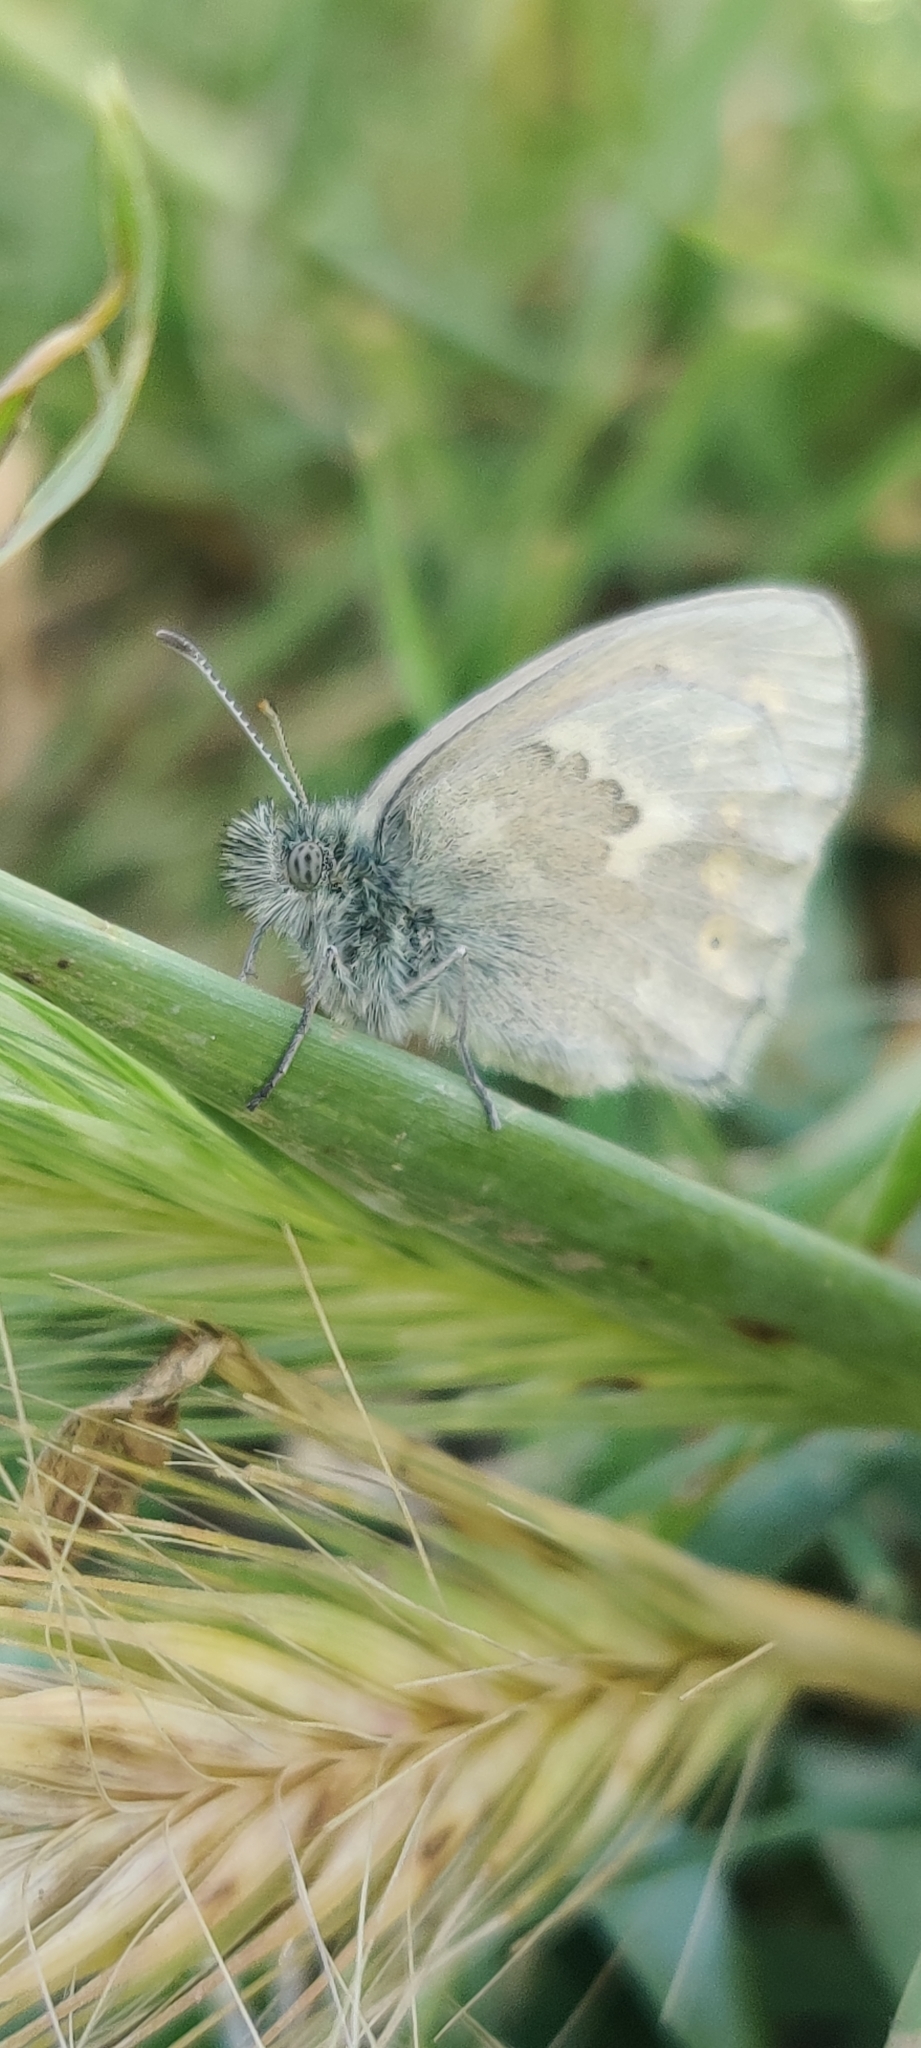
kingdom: Animalia
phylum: Arthropoda
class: Insecta
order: Lepidoptera
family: Nymphalidae
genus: Coenonympha
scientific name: Coenonympha california
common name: Common ringlet
